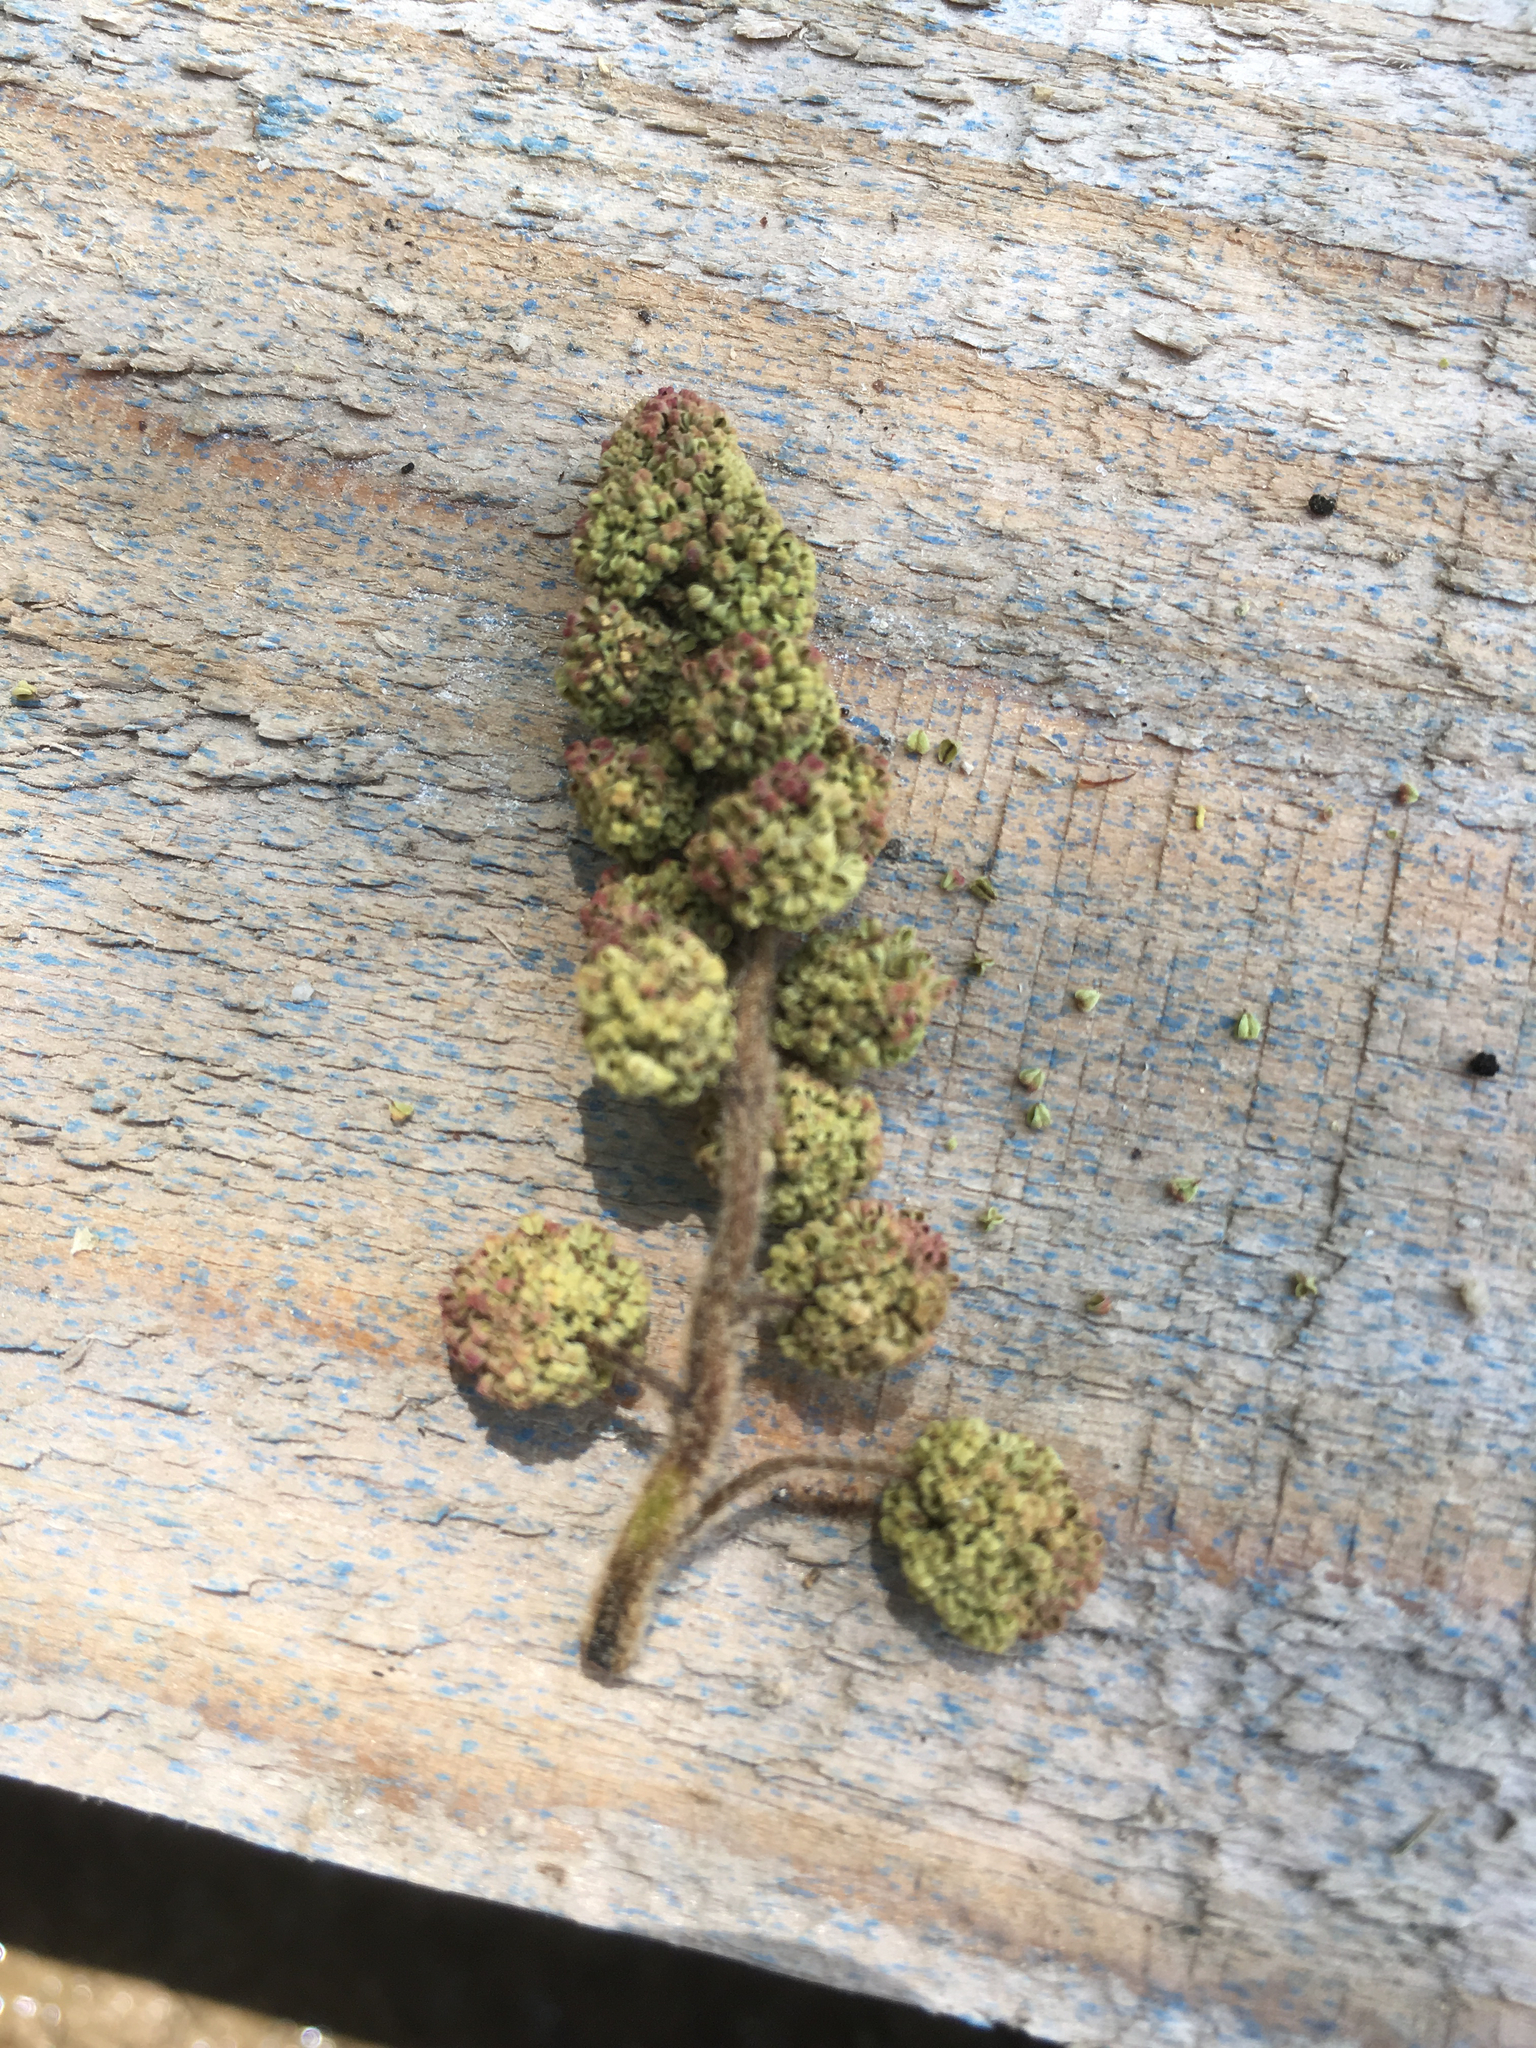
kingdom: Plantae
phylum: Tracheophyta
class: Magnoliopsida
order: Saxifragales
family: Altingiaceae
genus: Liquidambar
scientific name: Liquidambar styraciflua
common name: Sweet gum
